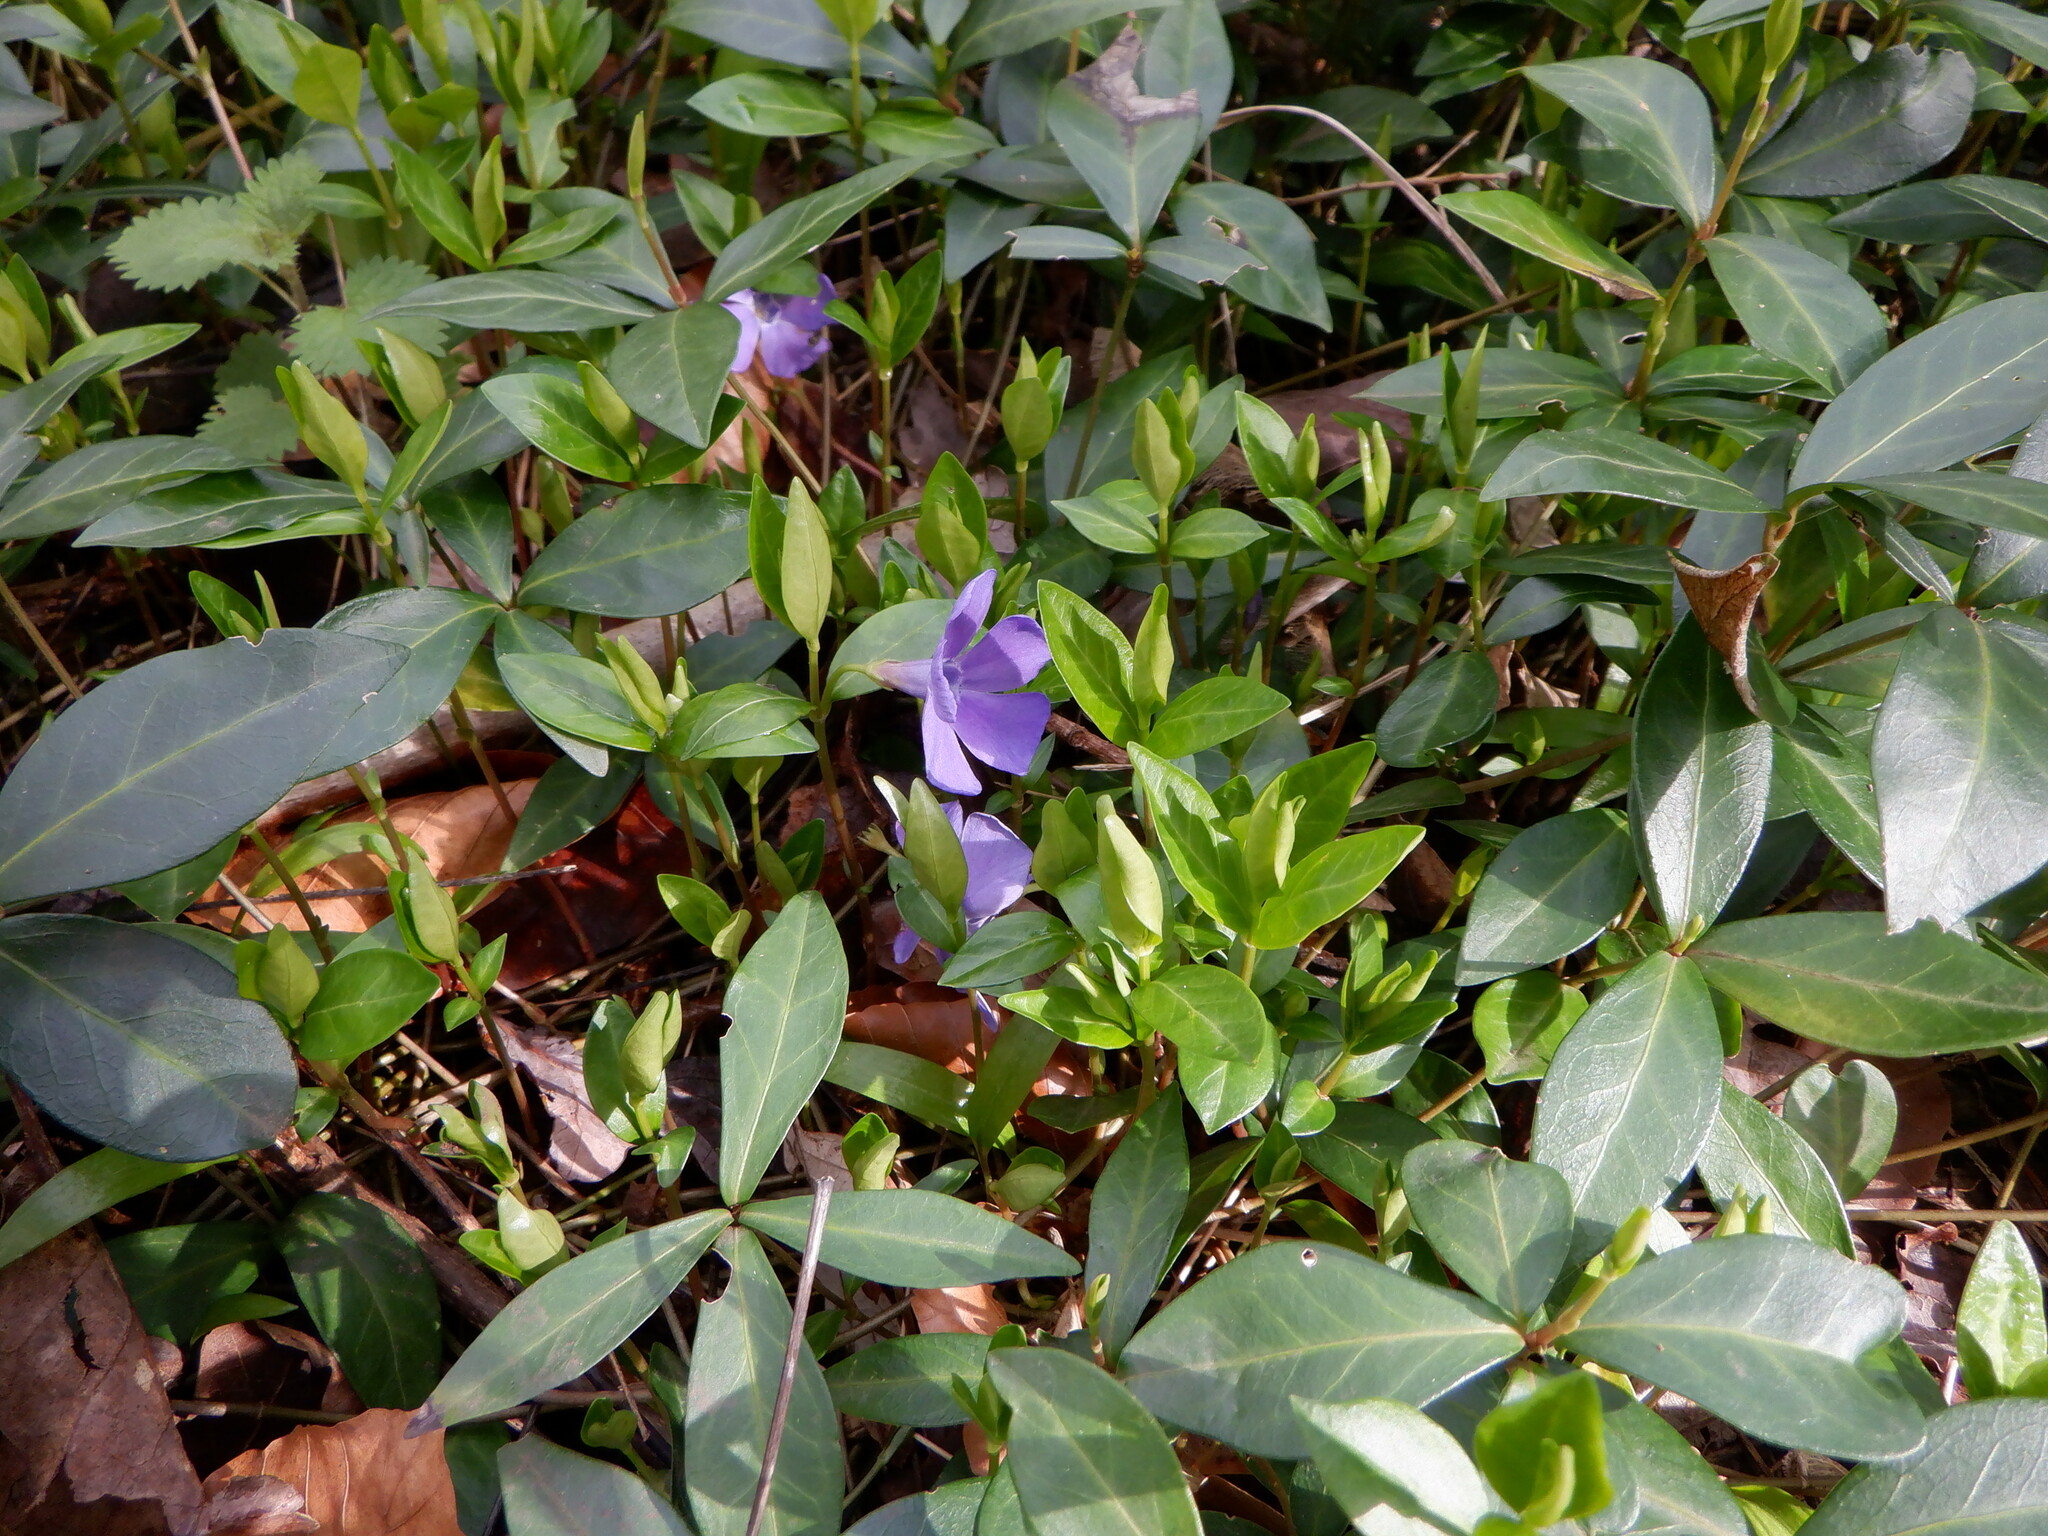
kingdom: Plantae
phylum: Tracheophyta
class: Magnoliopsida
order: Gentianales
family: Apocynaceae
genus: Vinca
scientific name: Vinca minor
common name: Lesser periwinkle
